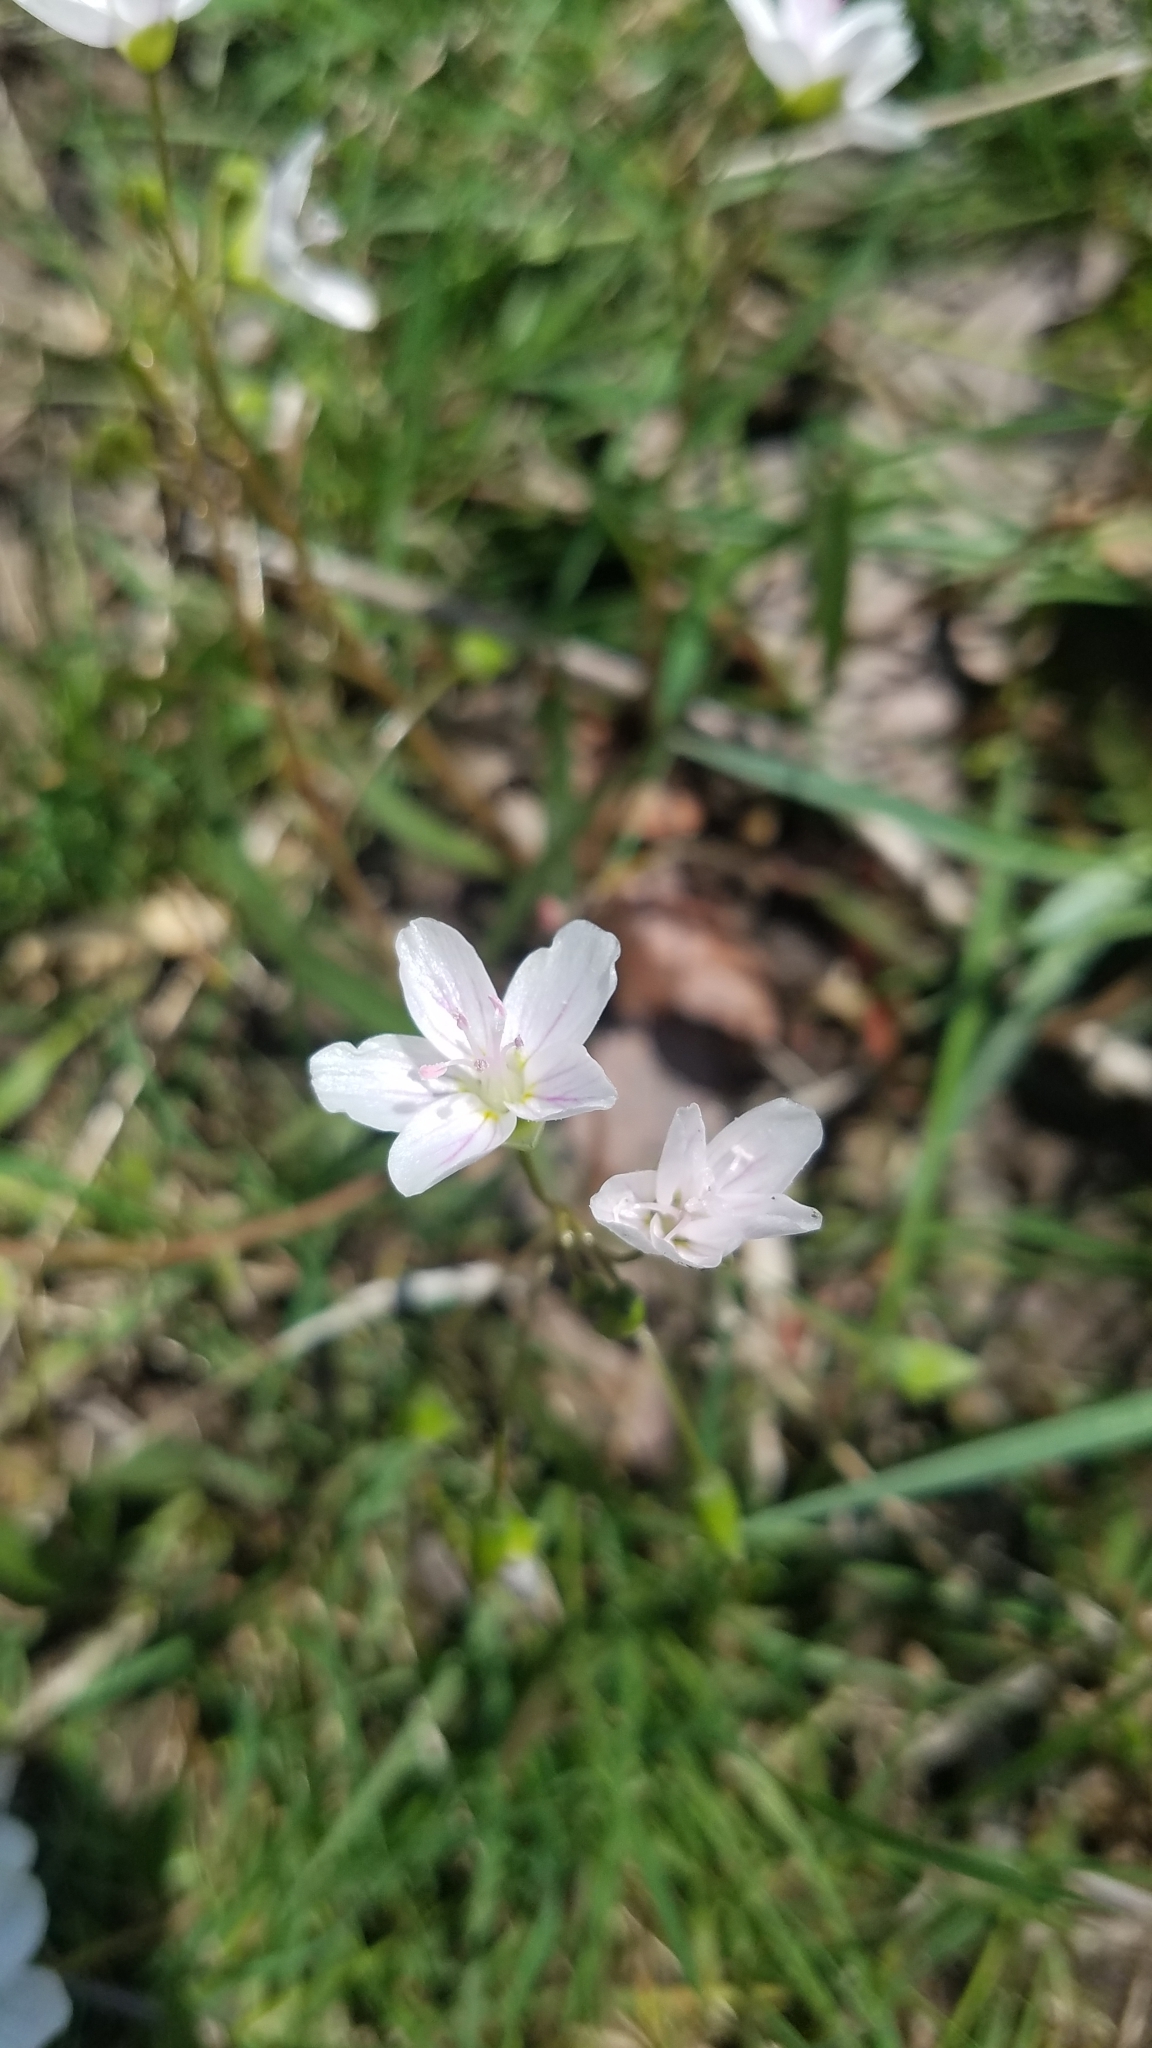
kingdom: Plantae
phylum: Tracheophyta
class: Magnoliopsida
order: Caryophyllales
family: Montiaceae
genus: Claytonia
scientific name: Claytonia virginica
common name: Virginia springbeauty
